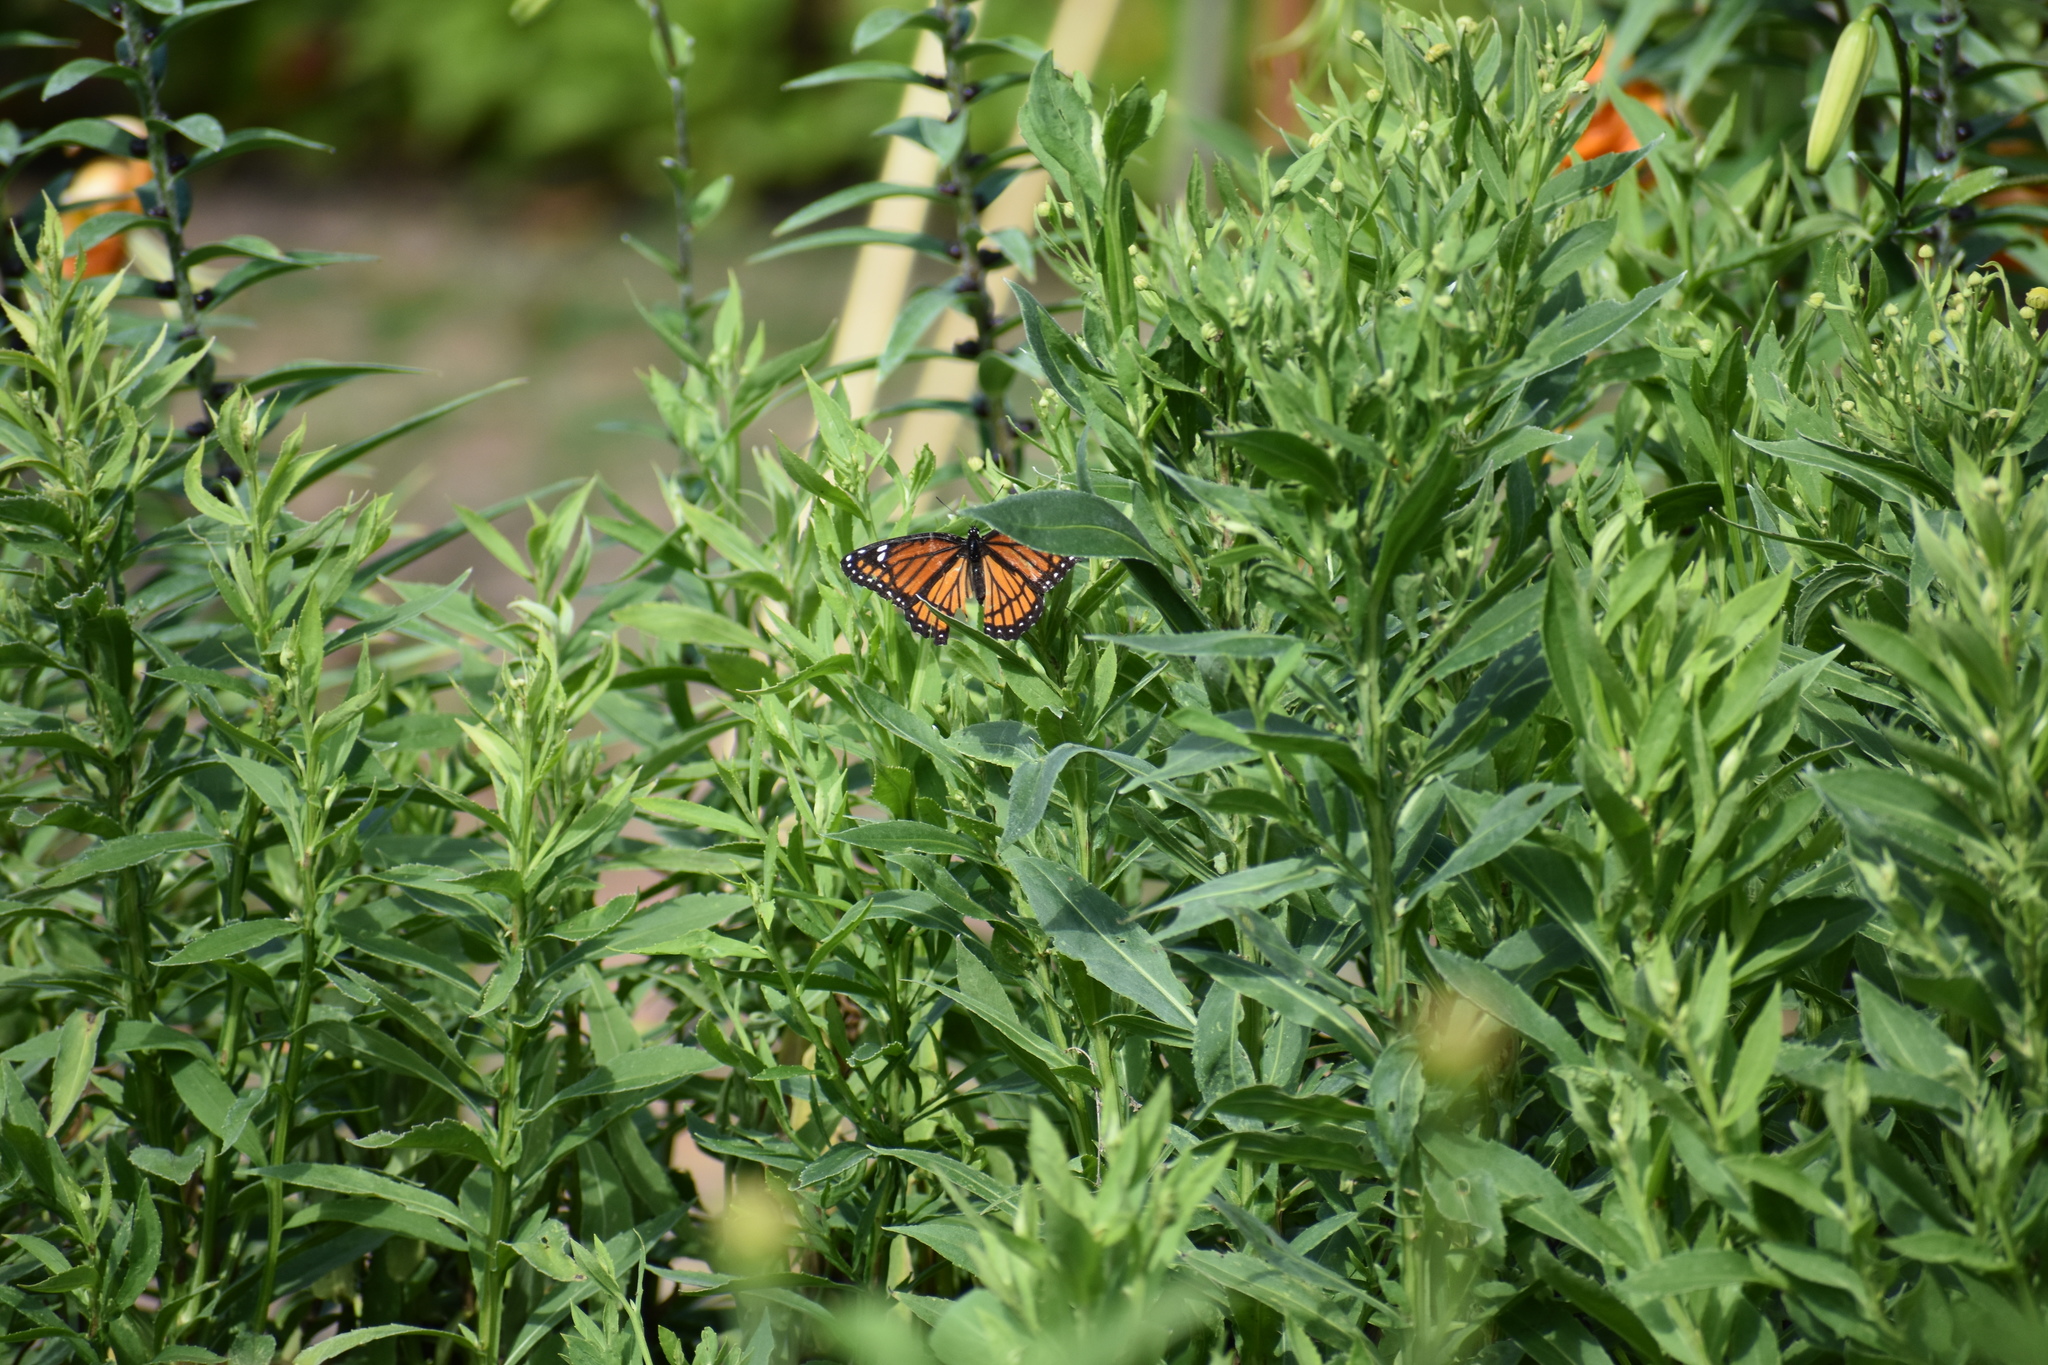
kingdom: Animalia
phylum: Arthropoda
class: Insecta
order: Lepidoptera
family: Nymphalidae
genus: Limenitis
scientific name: Limenitis archippus
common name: Viceroy
